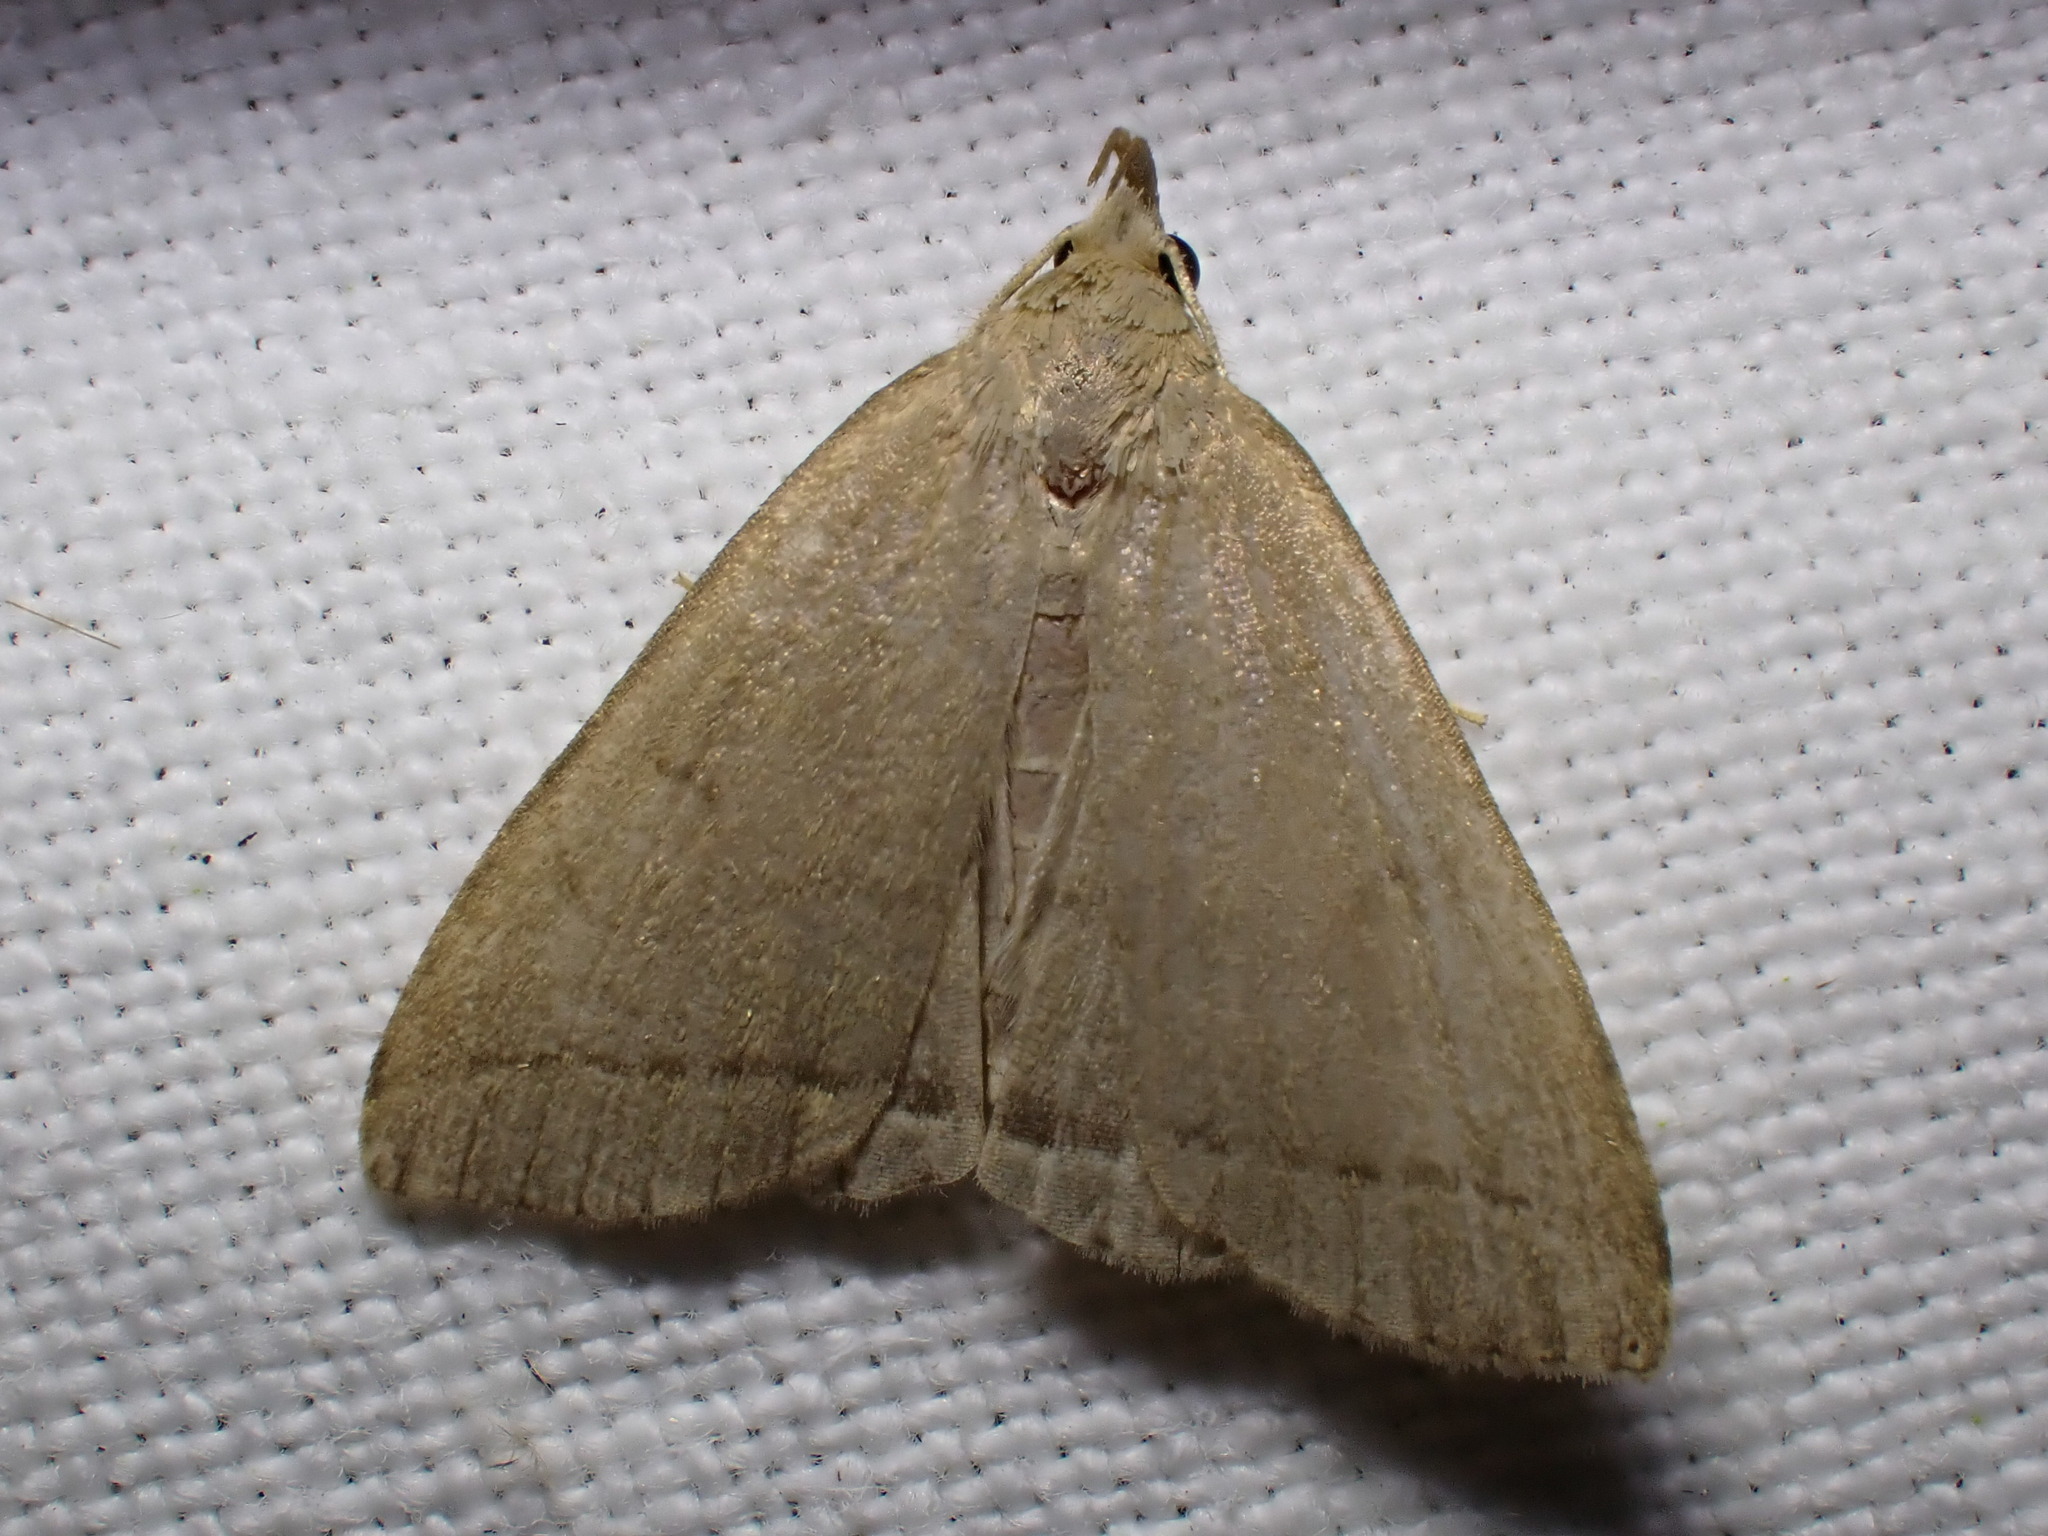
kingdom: Animalia
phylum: Arthropoda
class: Insecta
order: Lepidoptera
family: Erebidae
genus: Herminia
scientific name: Herminia tarsipennalis
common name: Fan-foot
